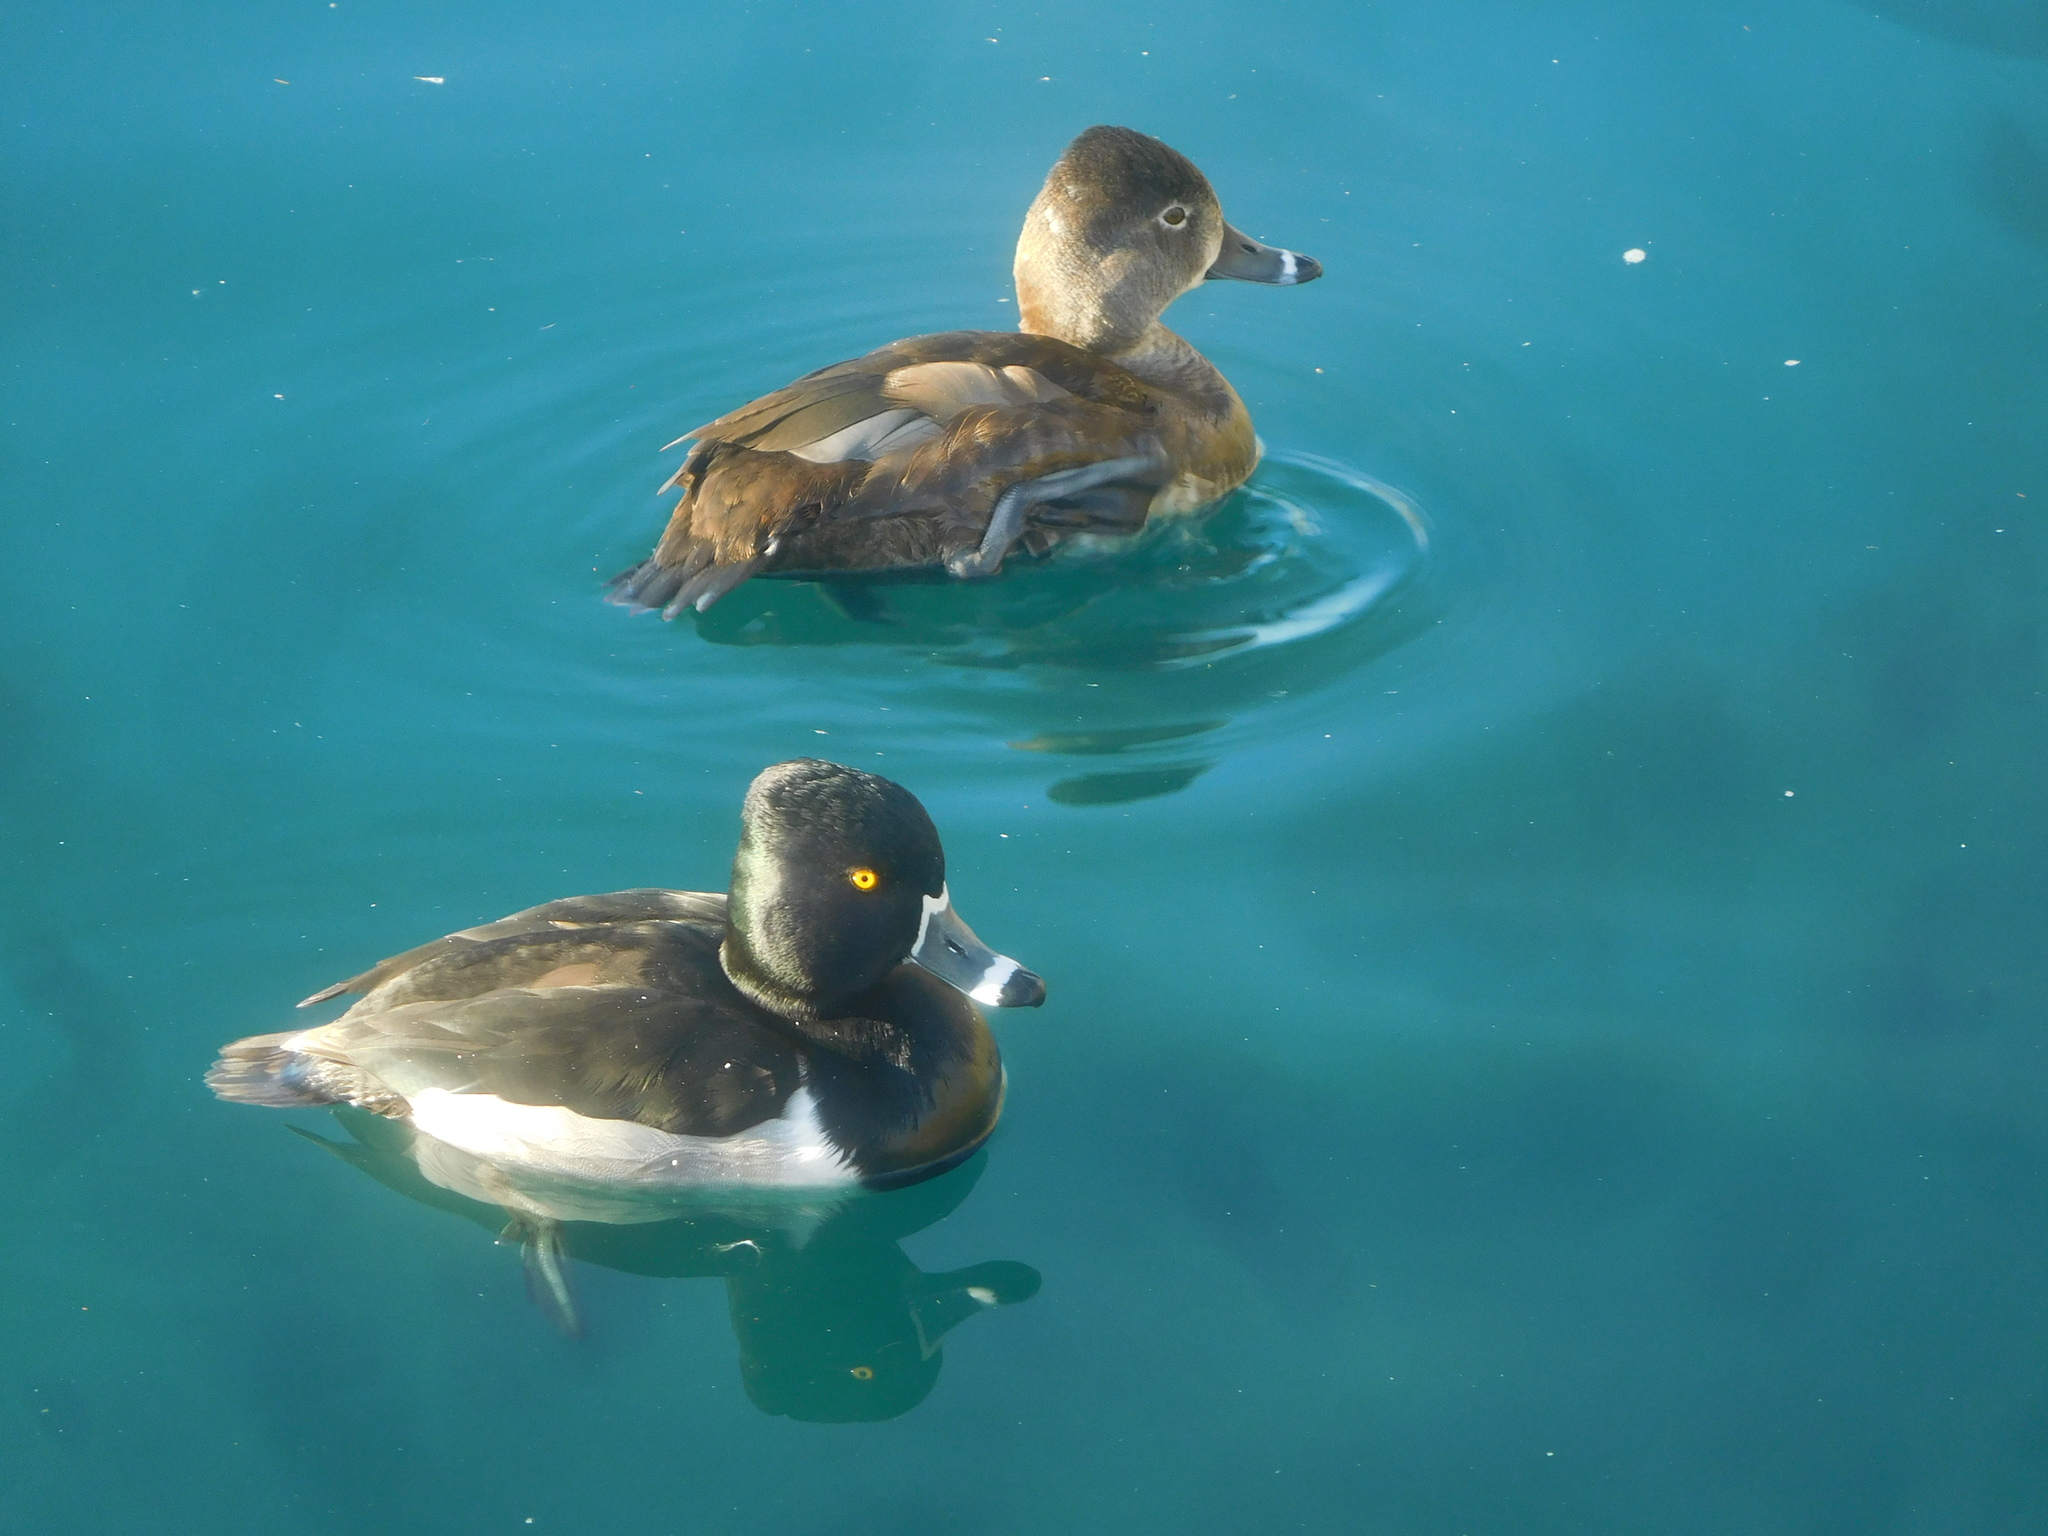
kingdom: Animalia
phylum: Chordata
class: Aves
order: Anseriformes
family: Anatidae
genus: Aythya
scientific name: Aythya collaris
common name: Ring-necked duck
